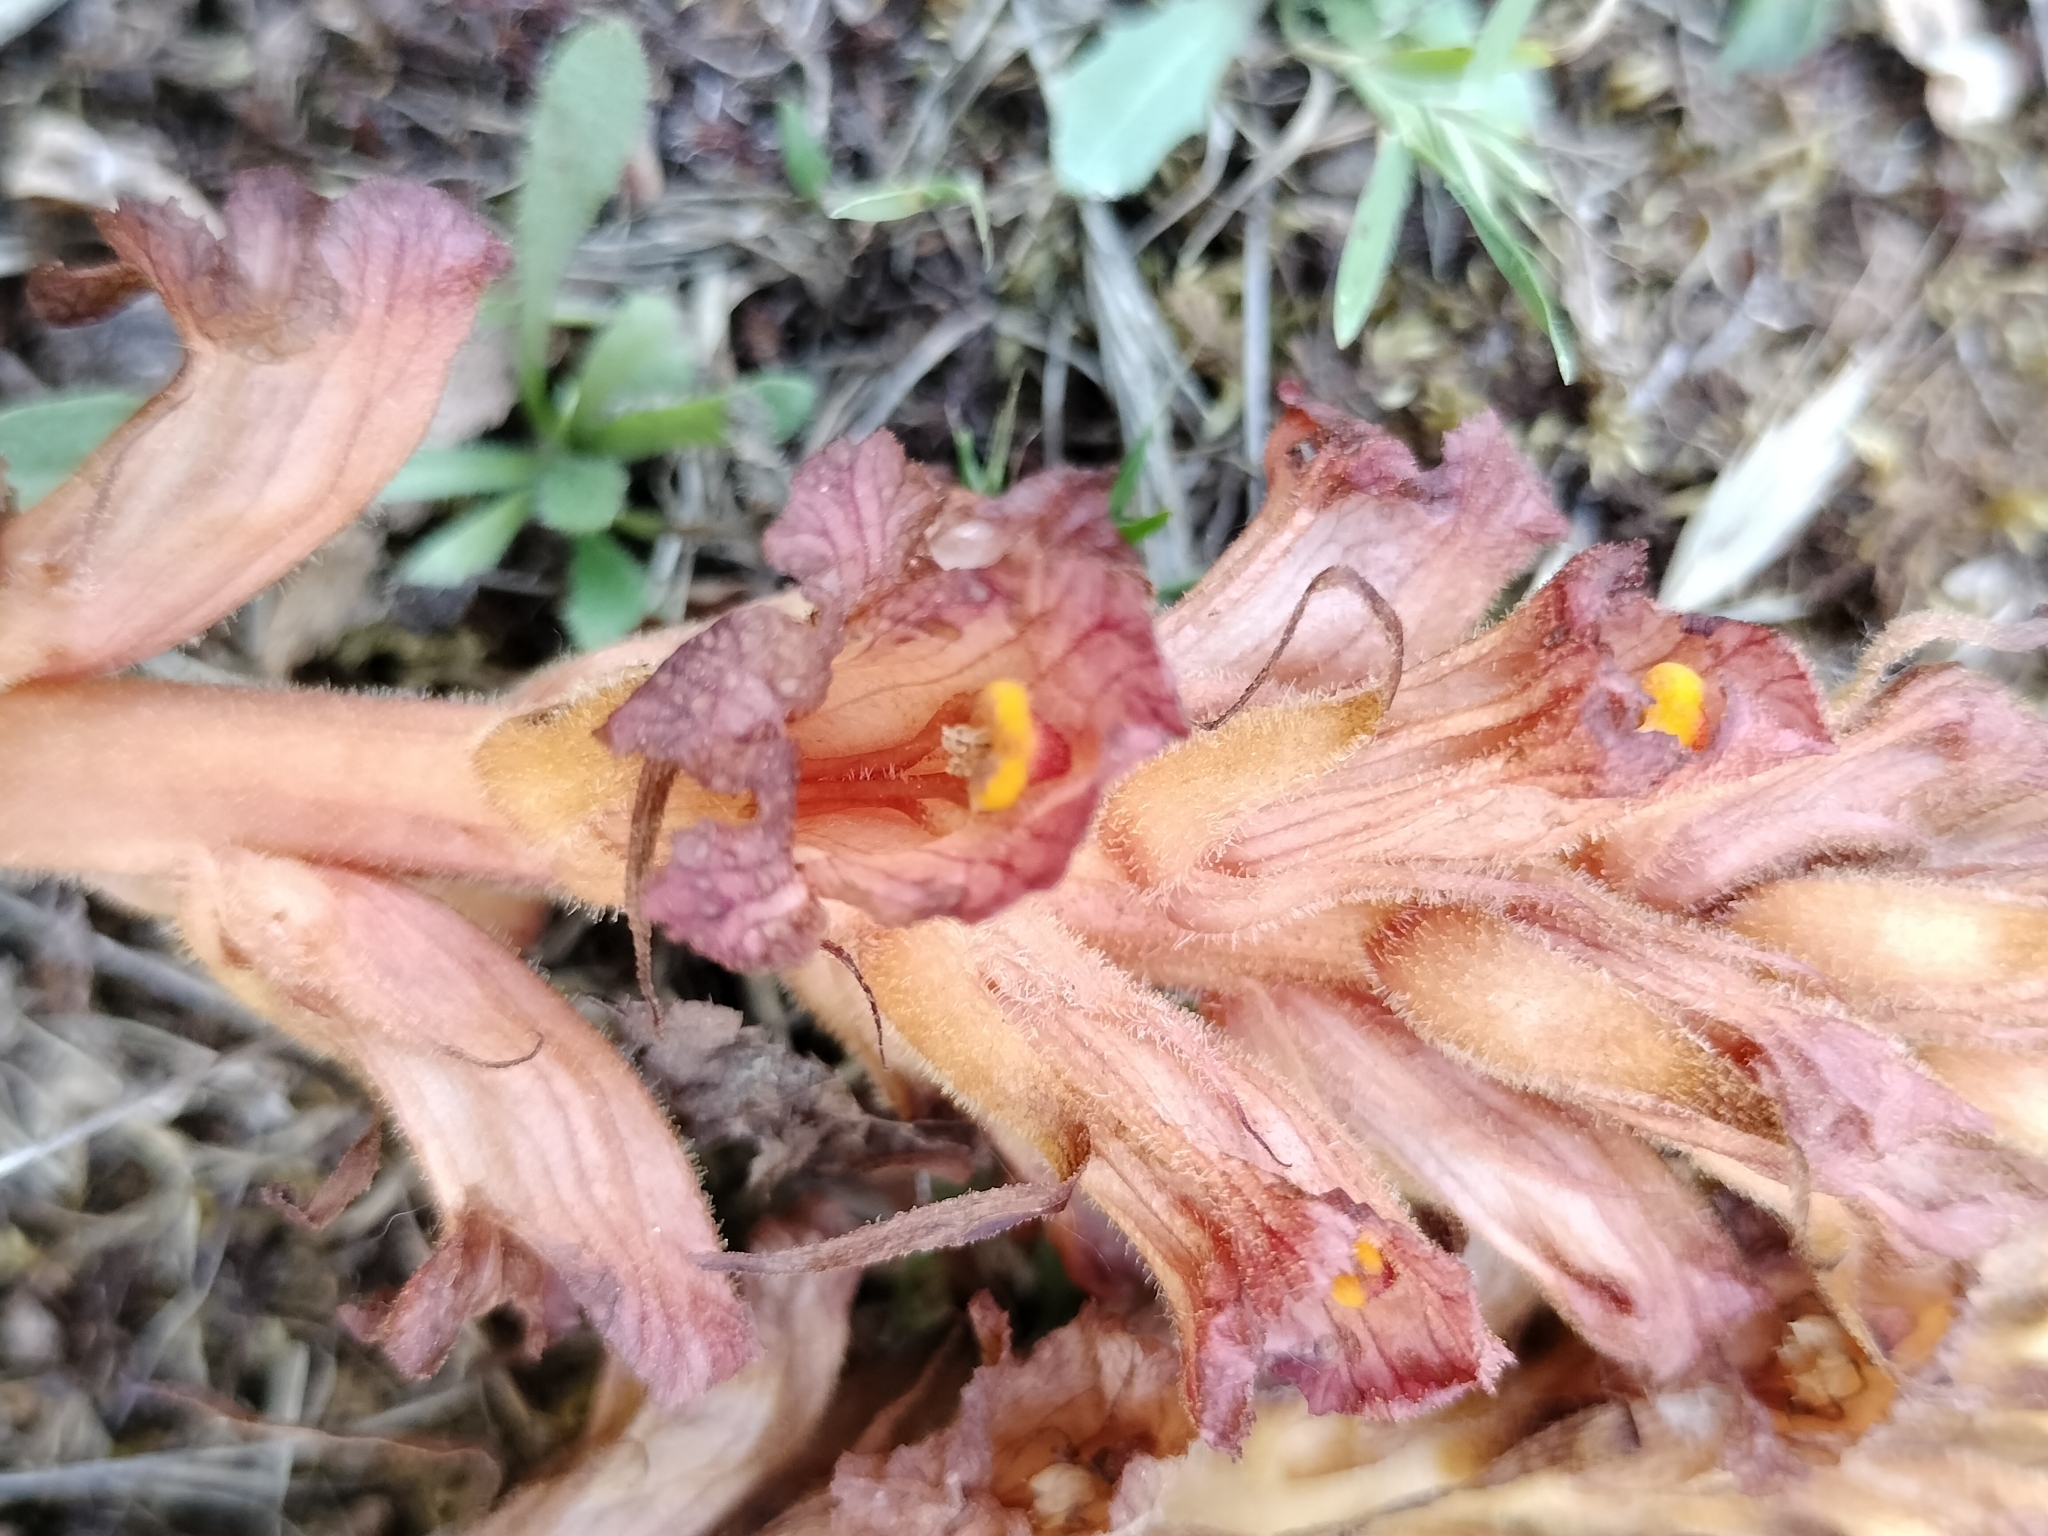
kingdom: Plantae
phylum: Tracheophyta
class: Magnoliopsida
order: Lamiales
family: Orobanchaceae
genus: Orobanche
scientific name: Orobanche haenseleri
